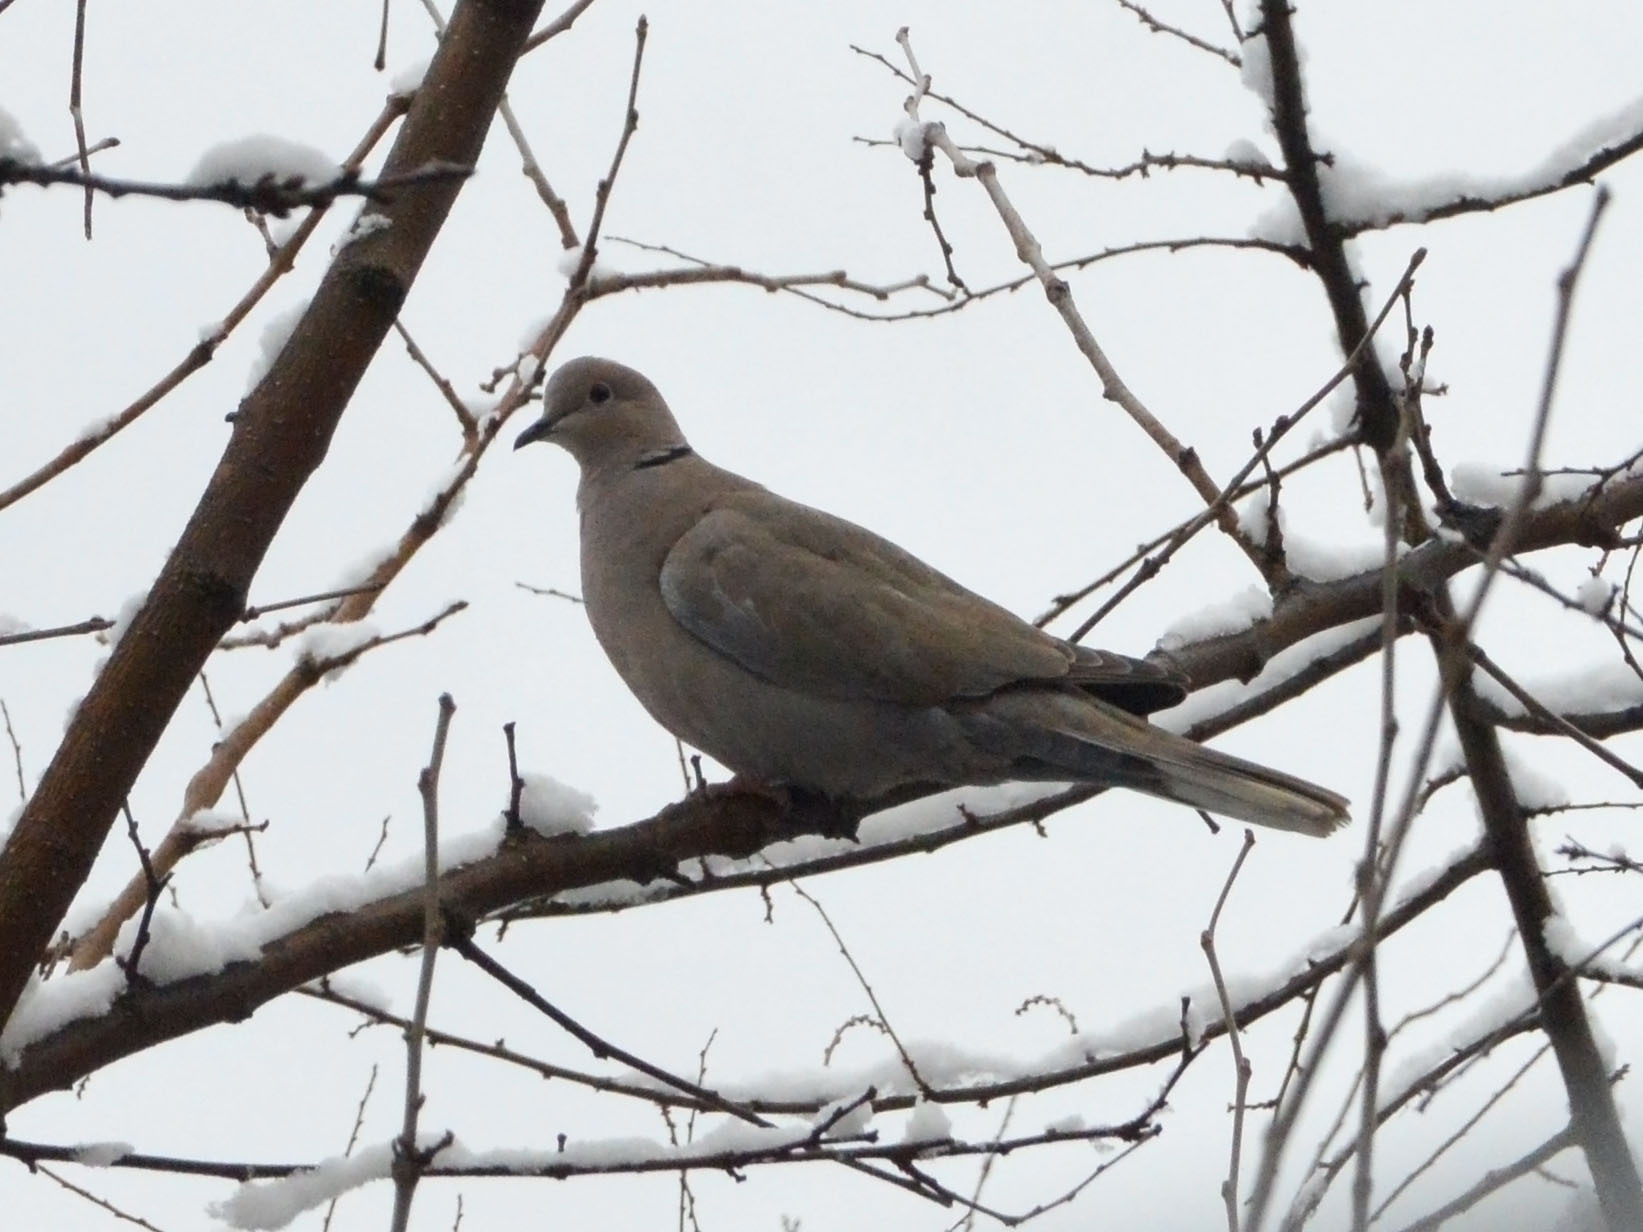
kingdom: Animalia
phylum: Chordata
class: Aves
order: Columbiformes
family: Columbidae
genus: Streptopelia
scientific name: Streptopelia decaocto
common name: Eurasian collared dove
